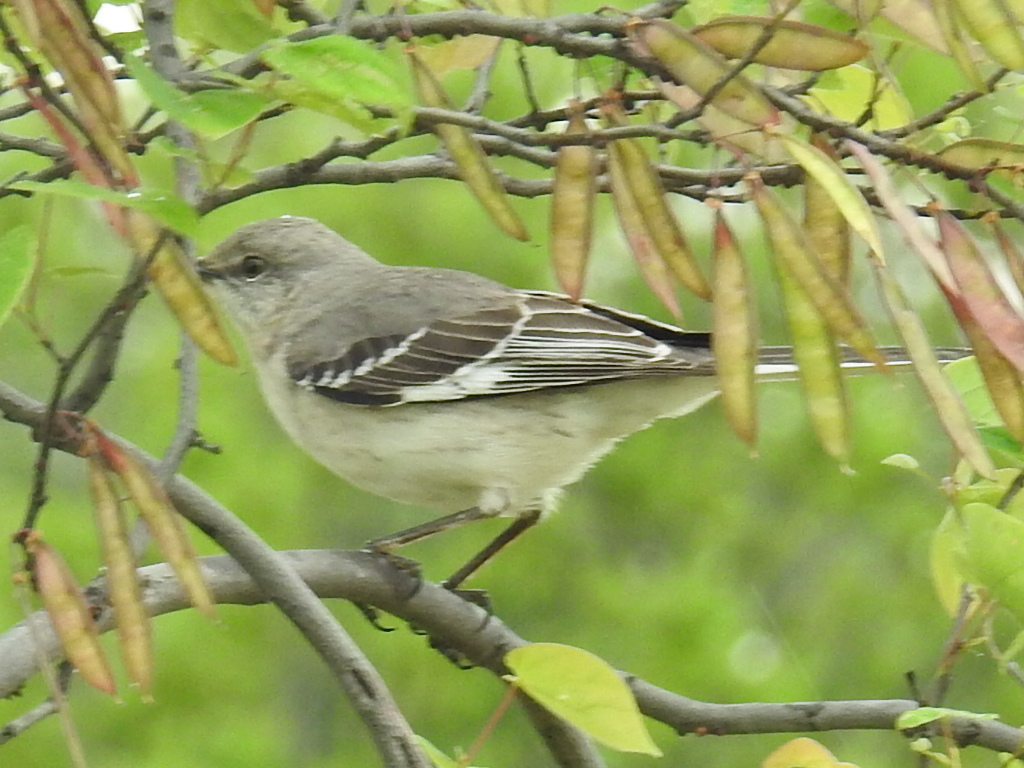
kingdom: Animalia
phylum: Chordata
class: Aves
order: Passeriformes
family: Mimidae
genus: Mimus
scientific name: Mimus polyglottos
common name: Northern mockingbird
